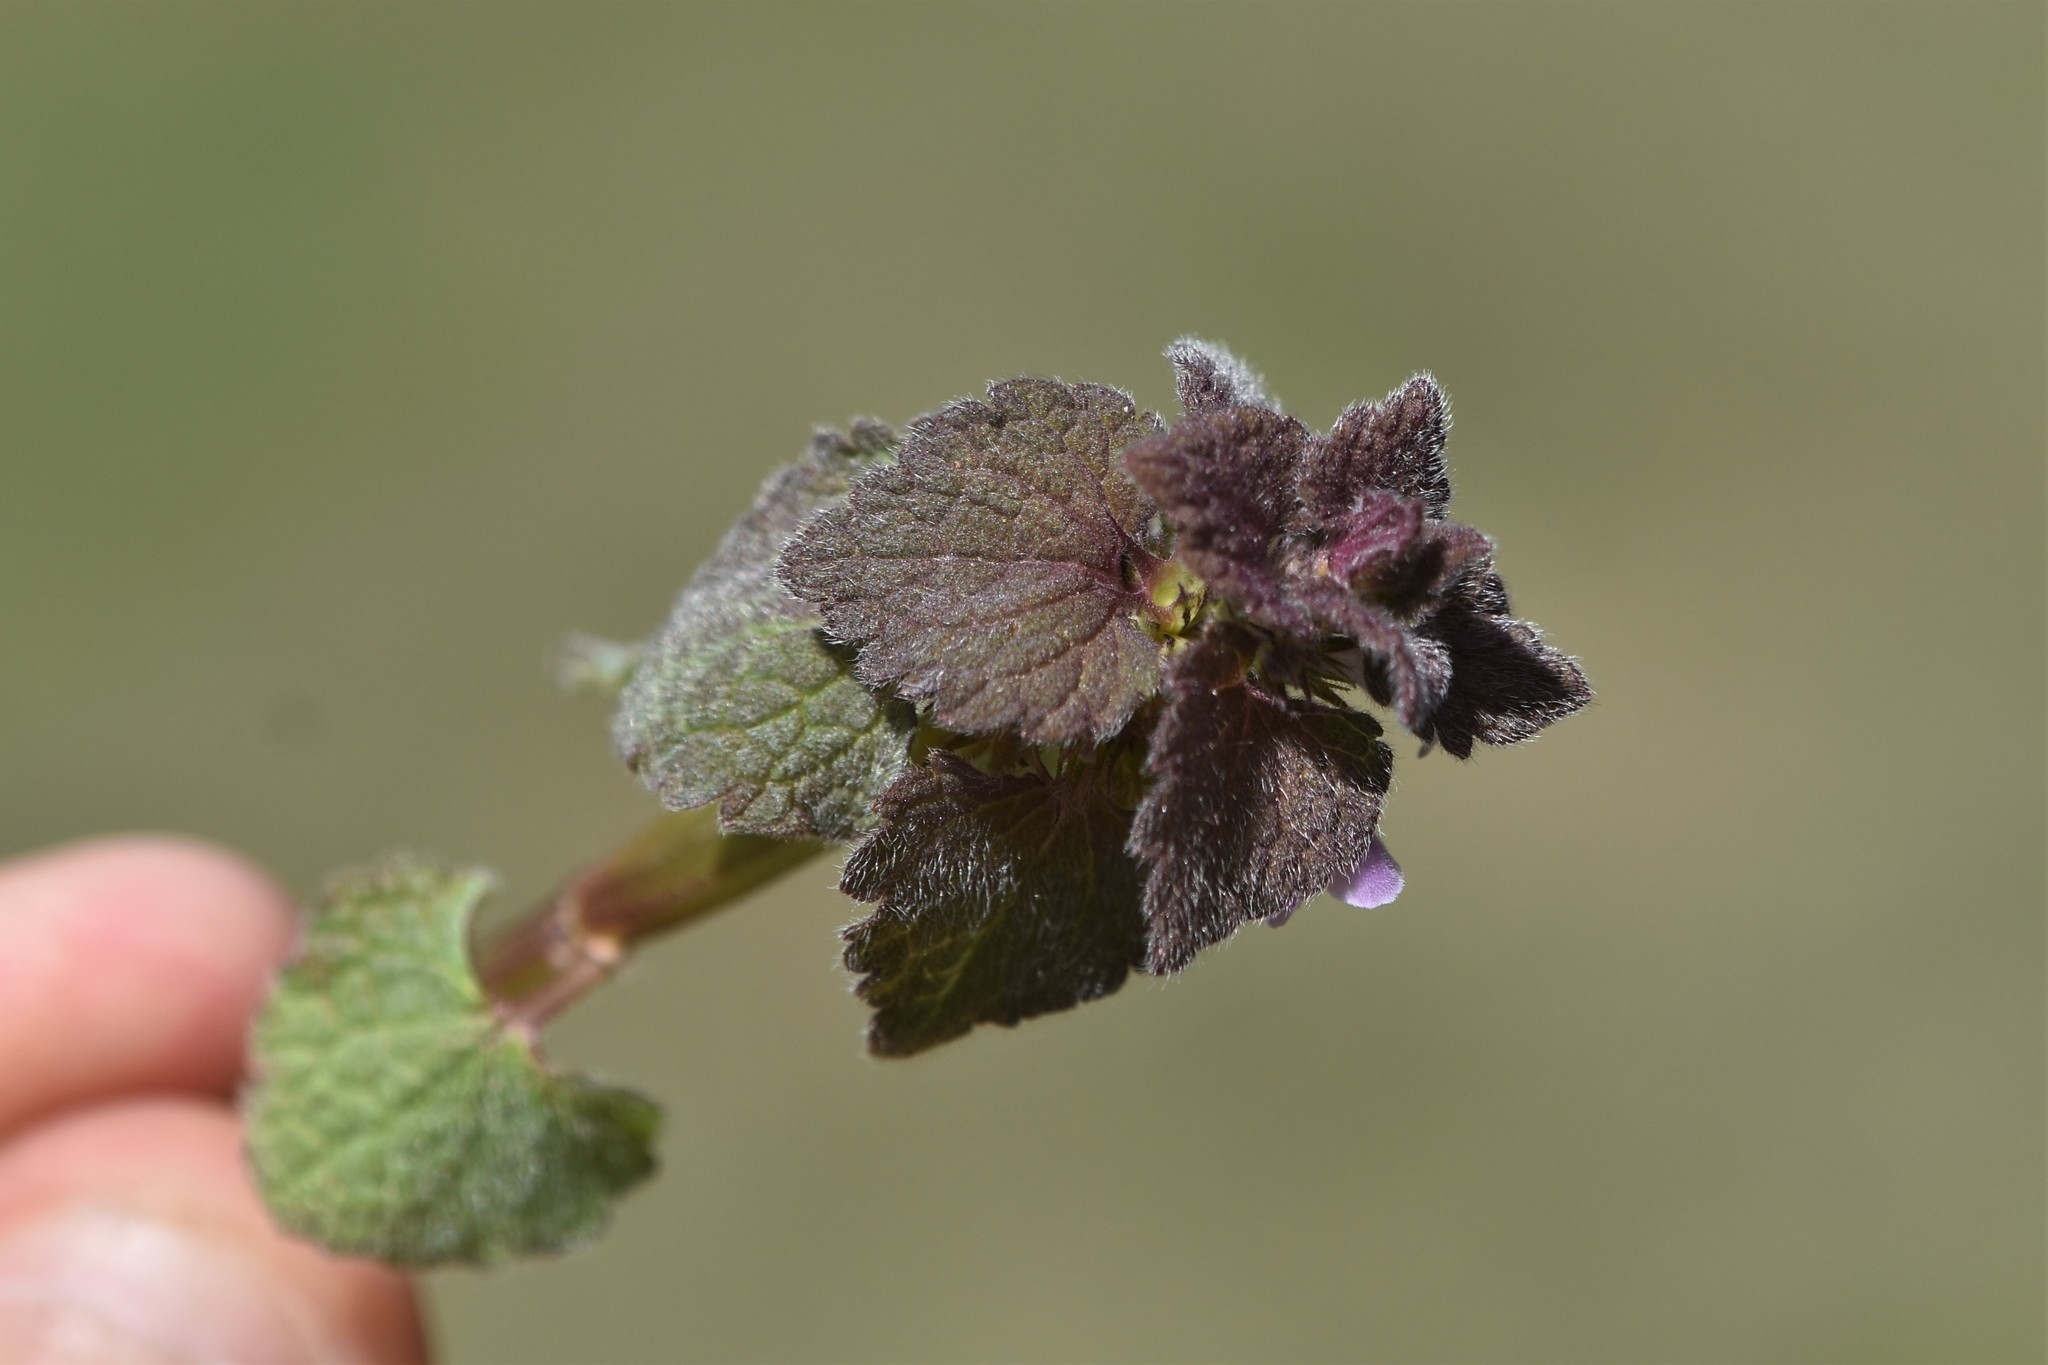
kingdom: Plantae
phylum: Tracheophyta
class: Magnoliopsida
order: Lamiales
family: Lamiaceae
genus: Lamium
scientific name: Lamium purpureum
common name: Red dead-nettle
